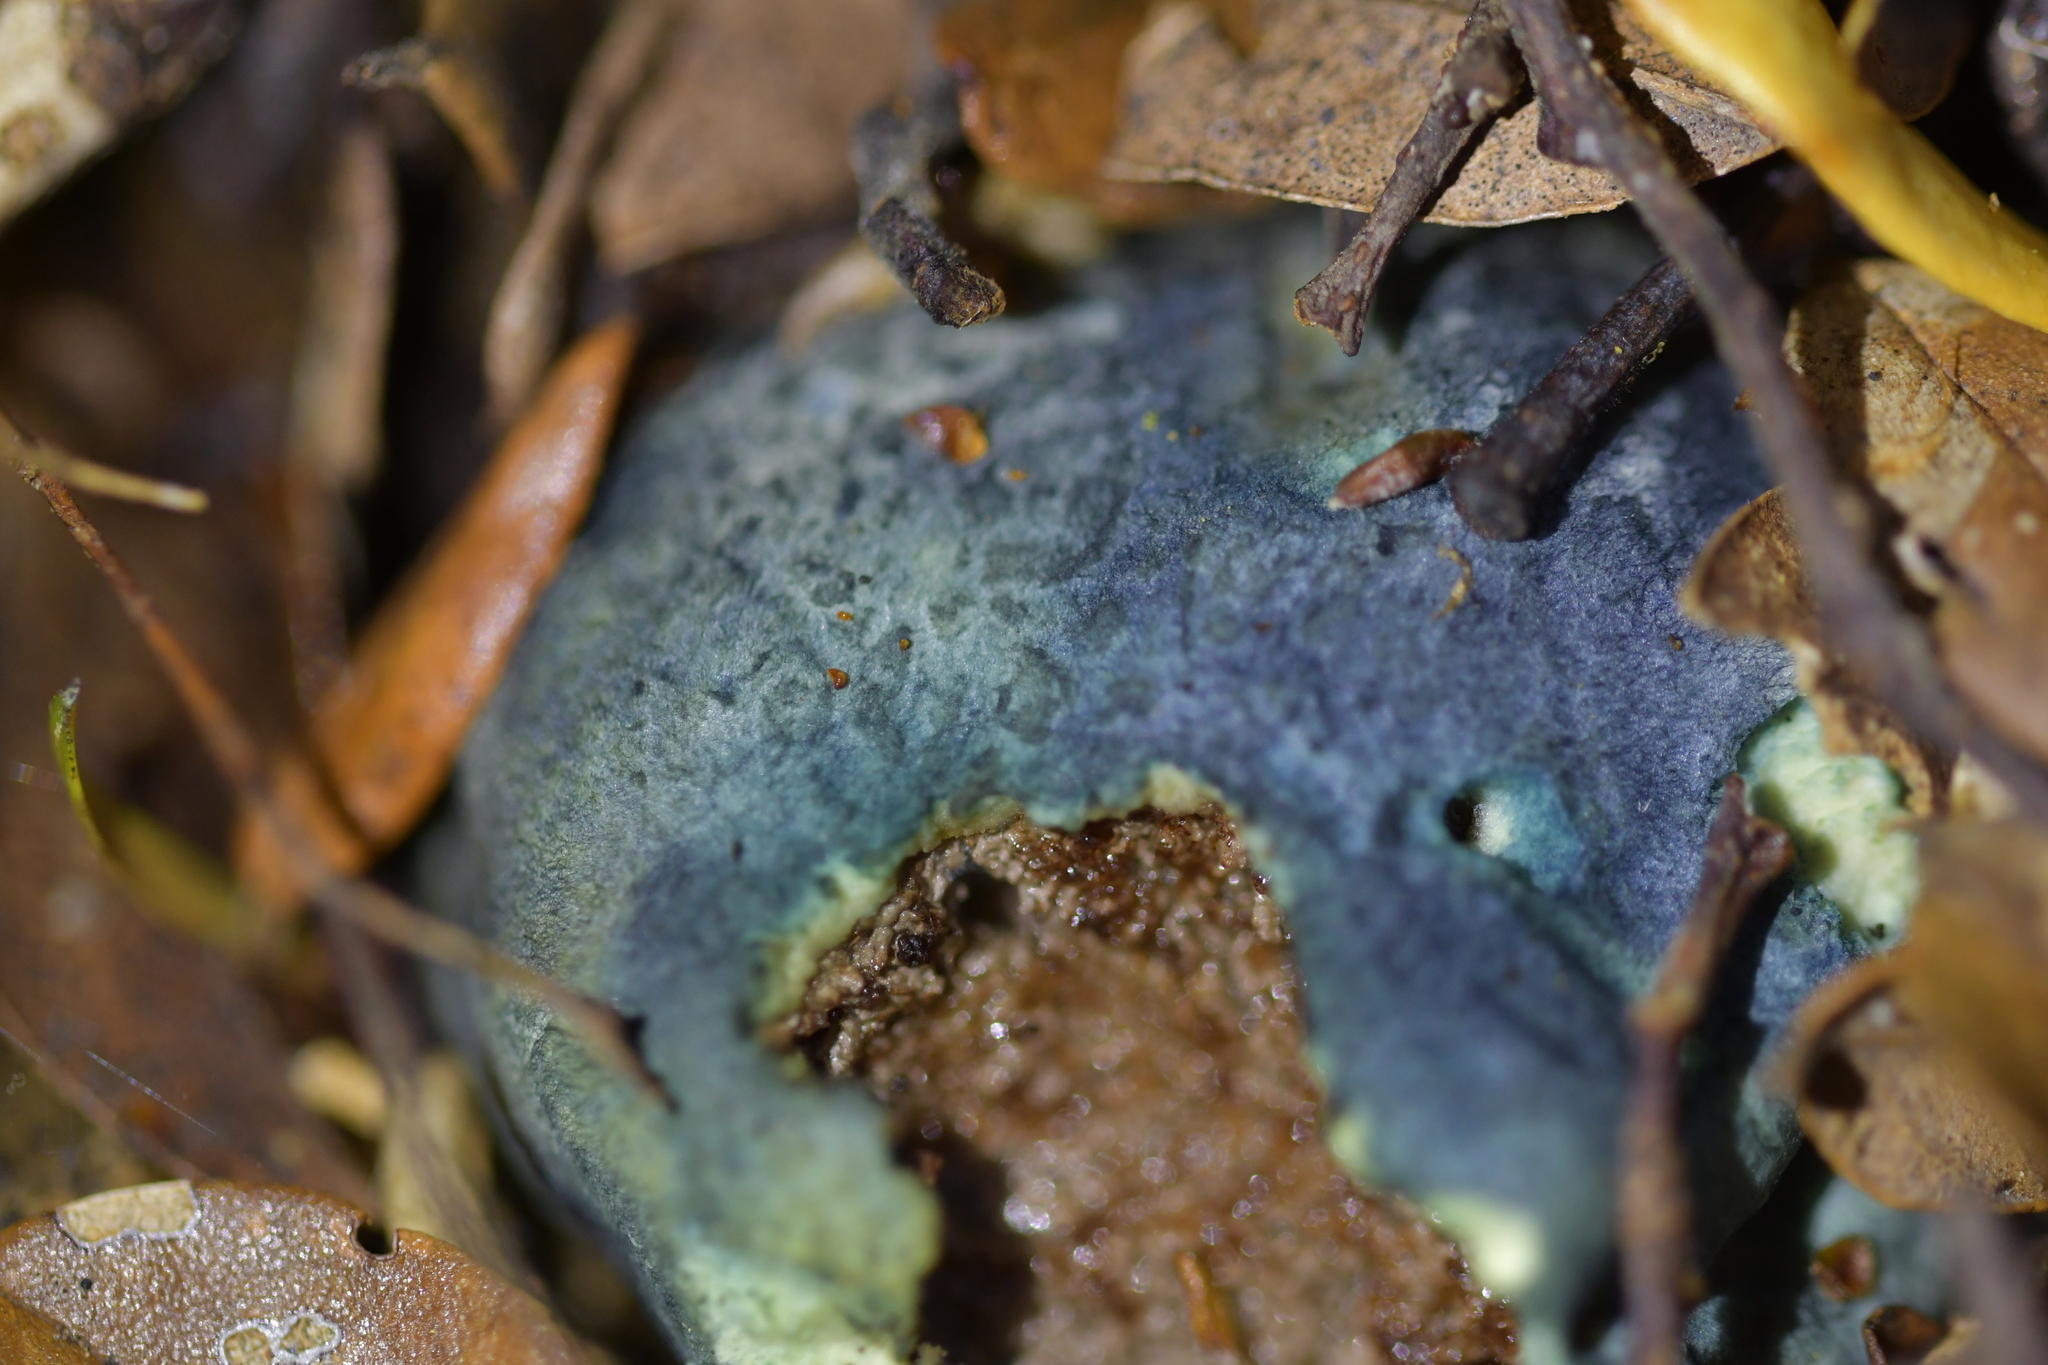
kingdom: Fungi
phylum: Basidiomycota
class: Agaricomycetes
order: Boletales
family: Boletaceae
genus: Leccinum
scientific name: Leccinum pachyderme
